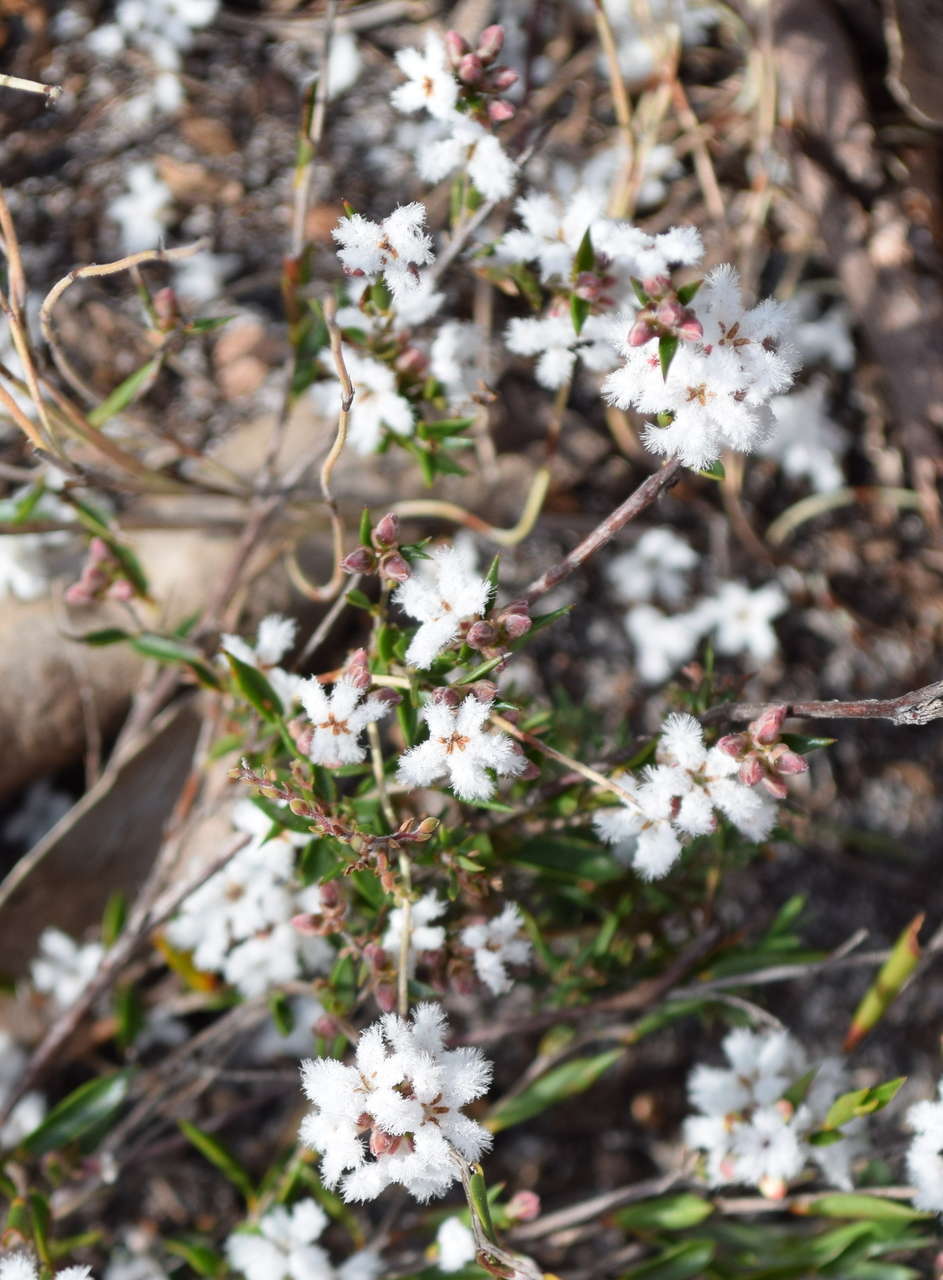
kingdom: Plantae
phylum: Tracheophyta
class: Magnoliopsida
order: Ericales
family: Ericaceae
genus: Leucopogon
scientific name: Leucopogon virgatus
